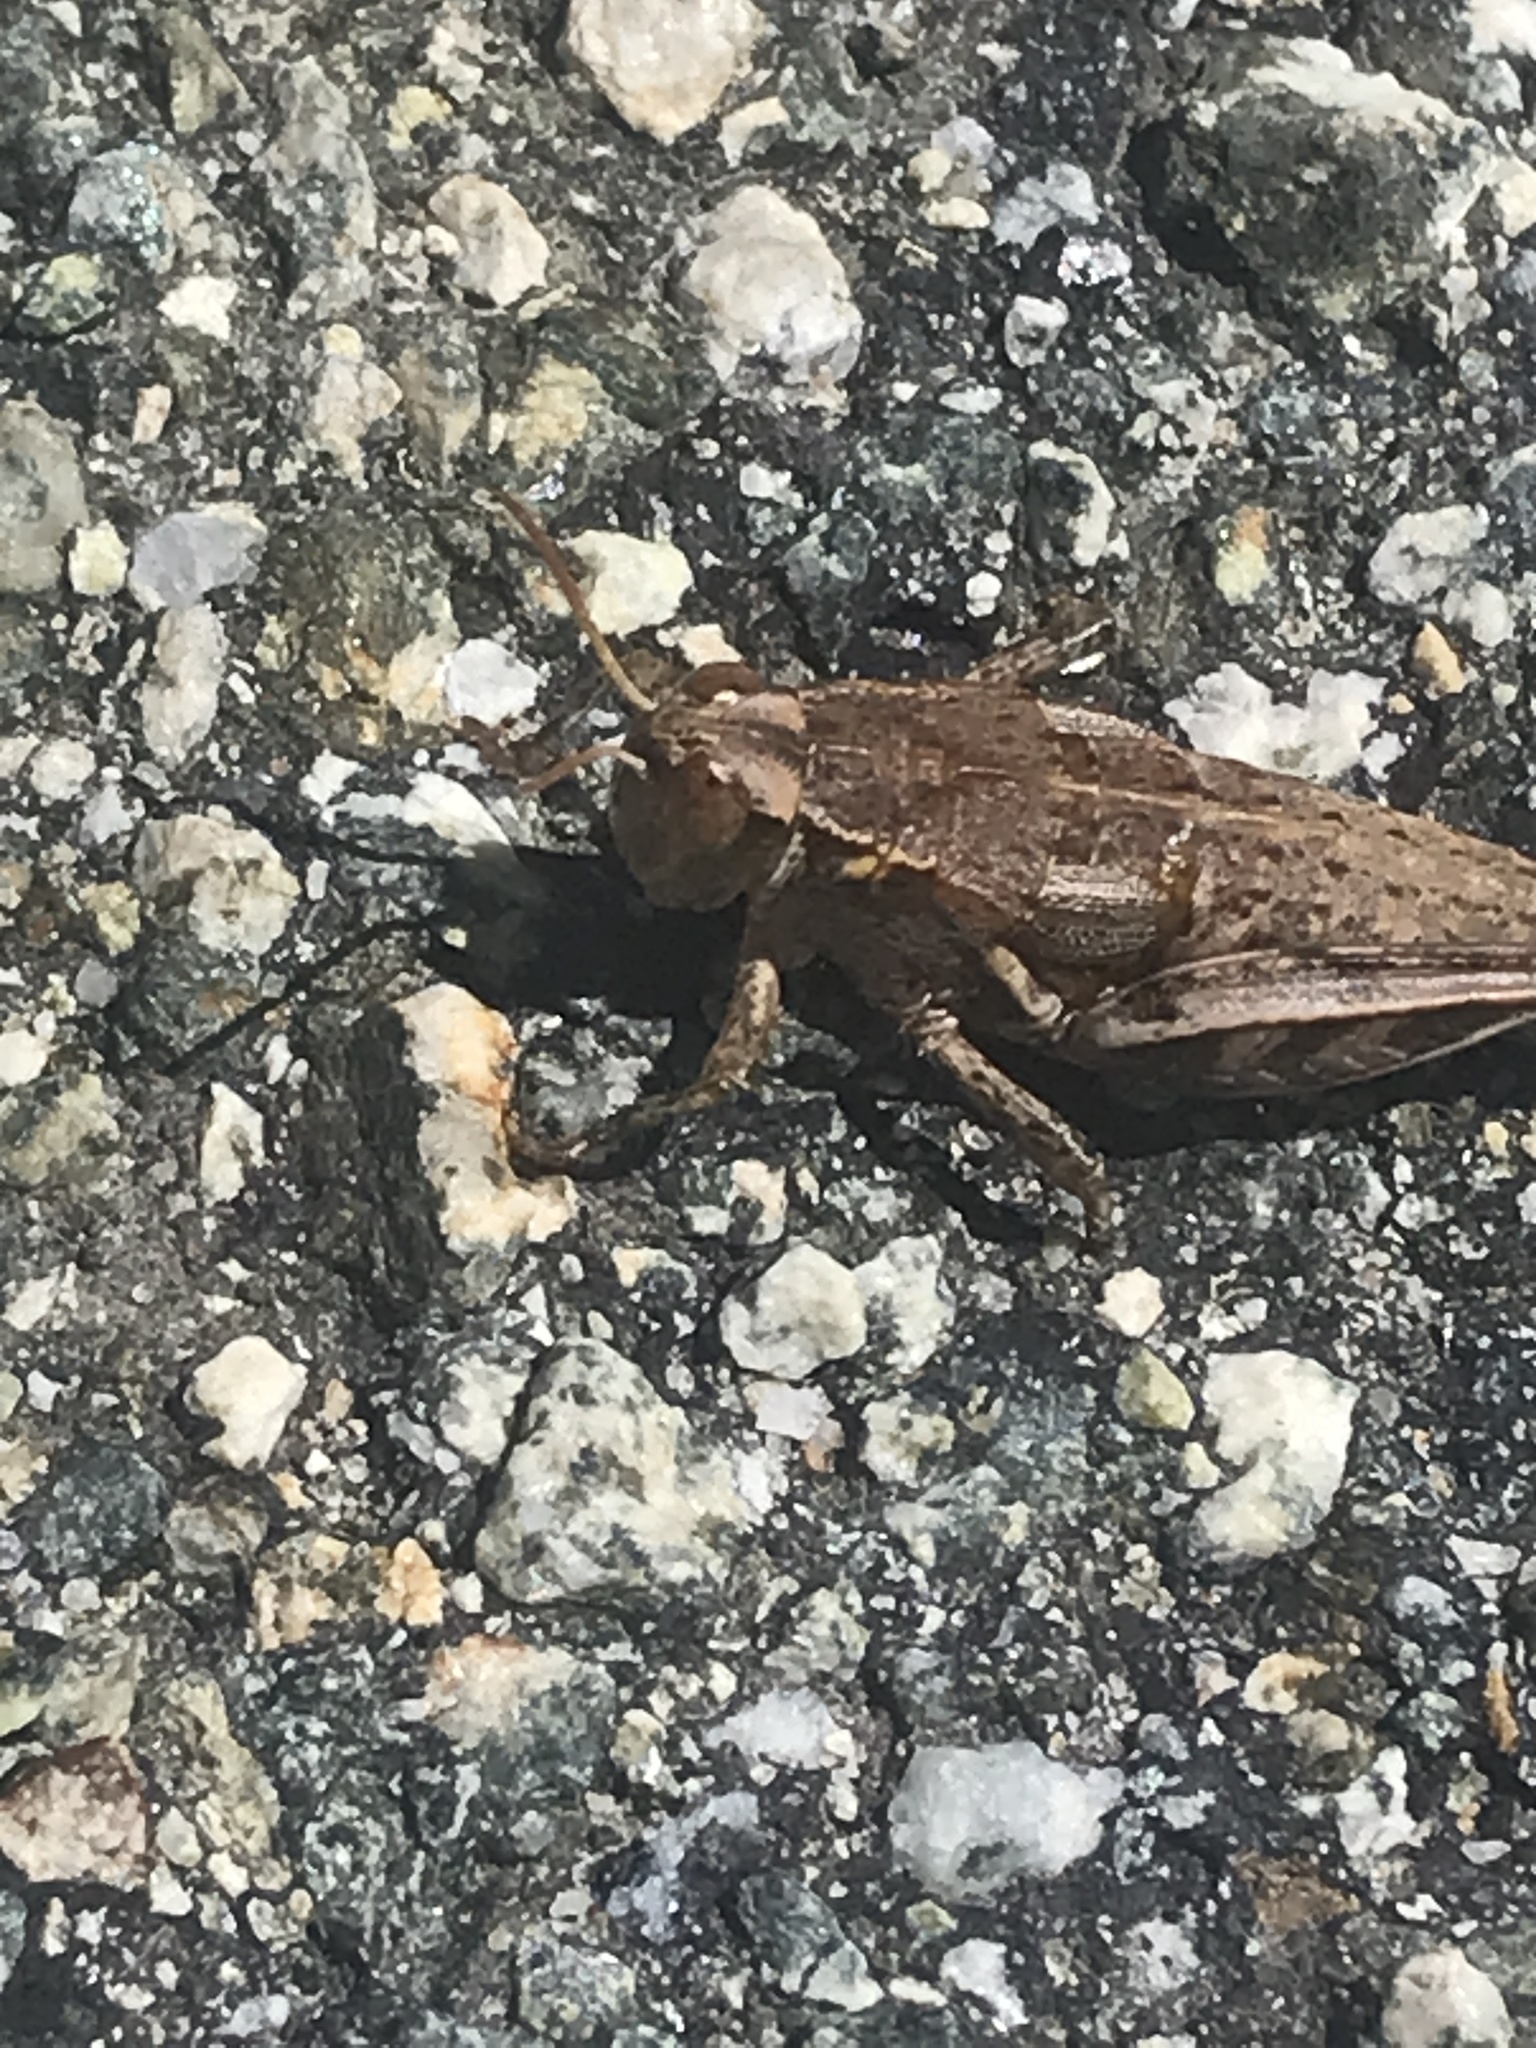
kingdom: Animalia
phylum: Arthropoda
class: Insecta
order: Orthoptera
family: Acrididae
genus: Oedaleonotus
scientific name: Oedaleonotus phryneicus
